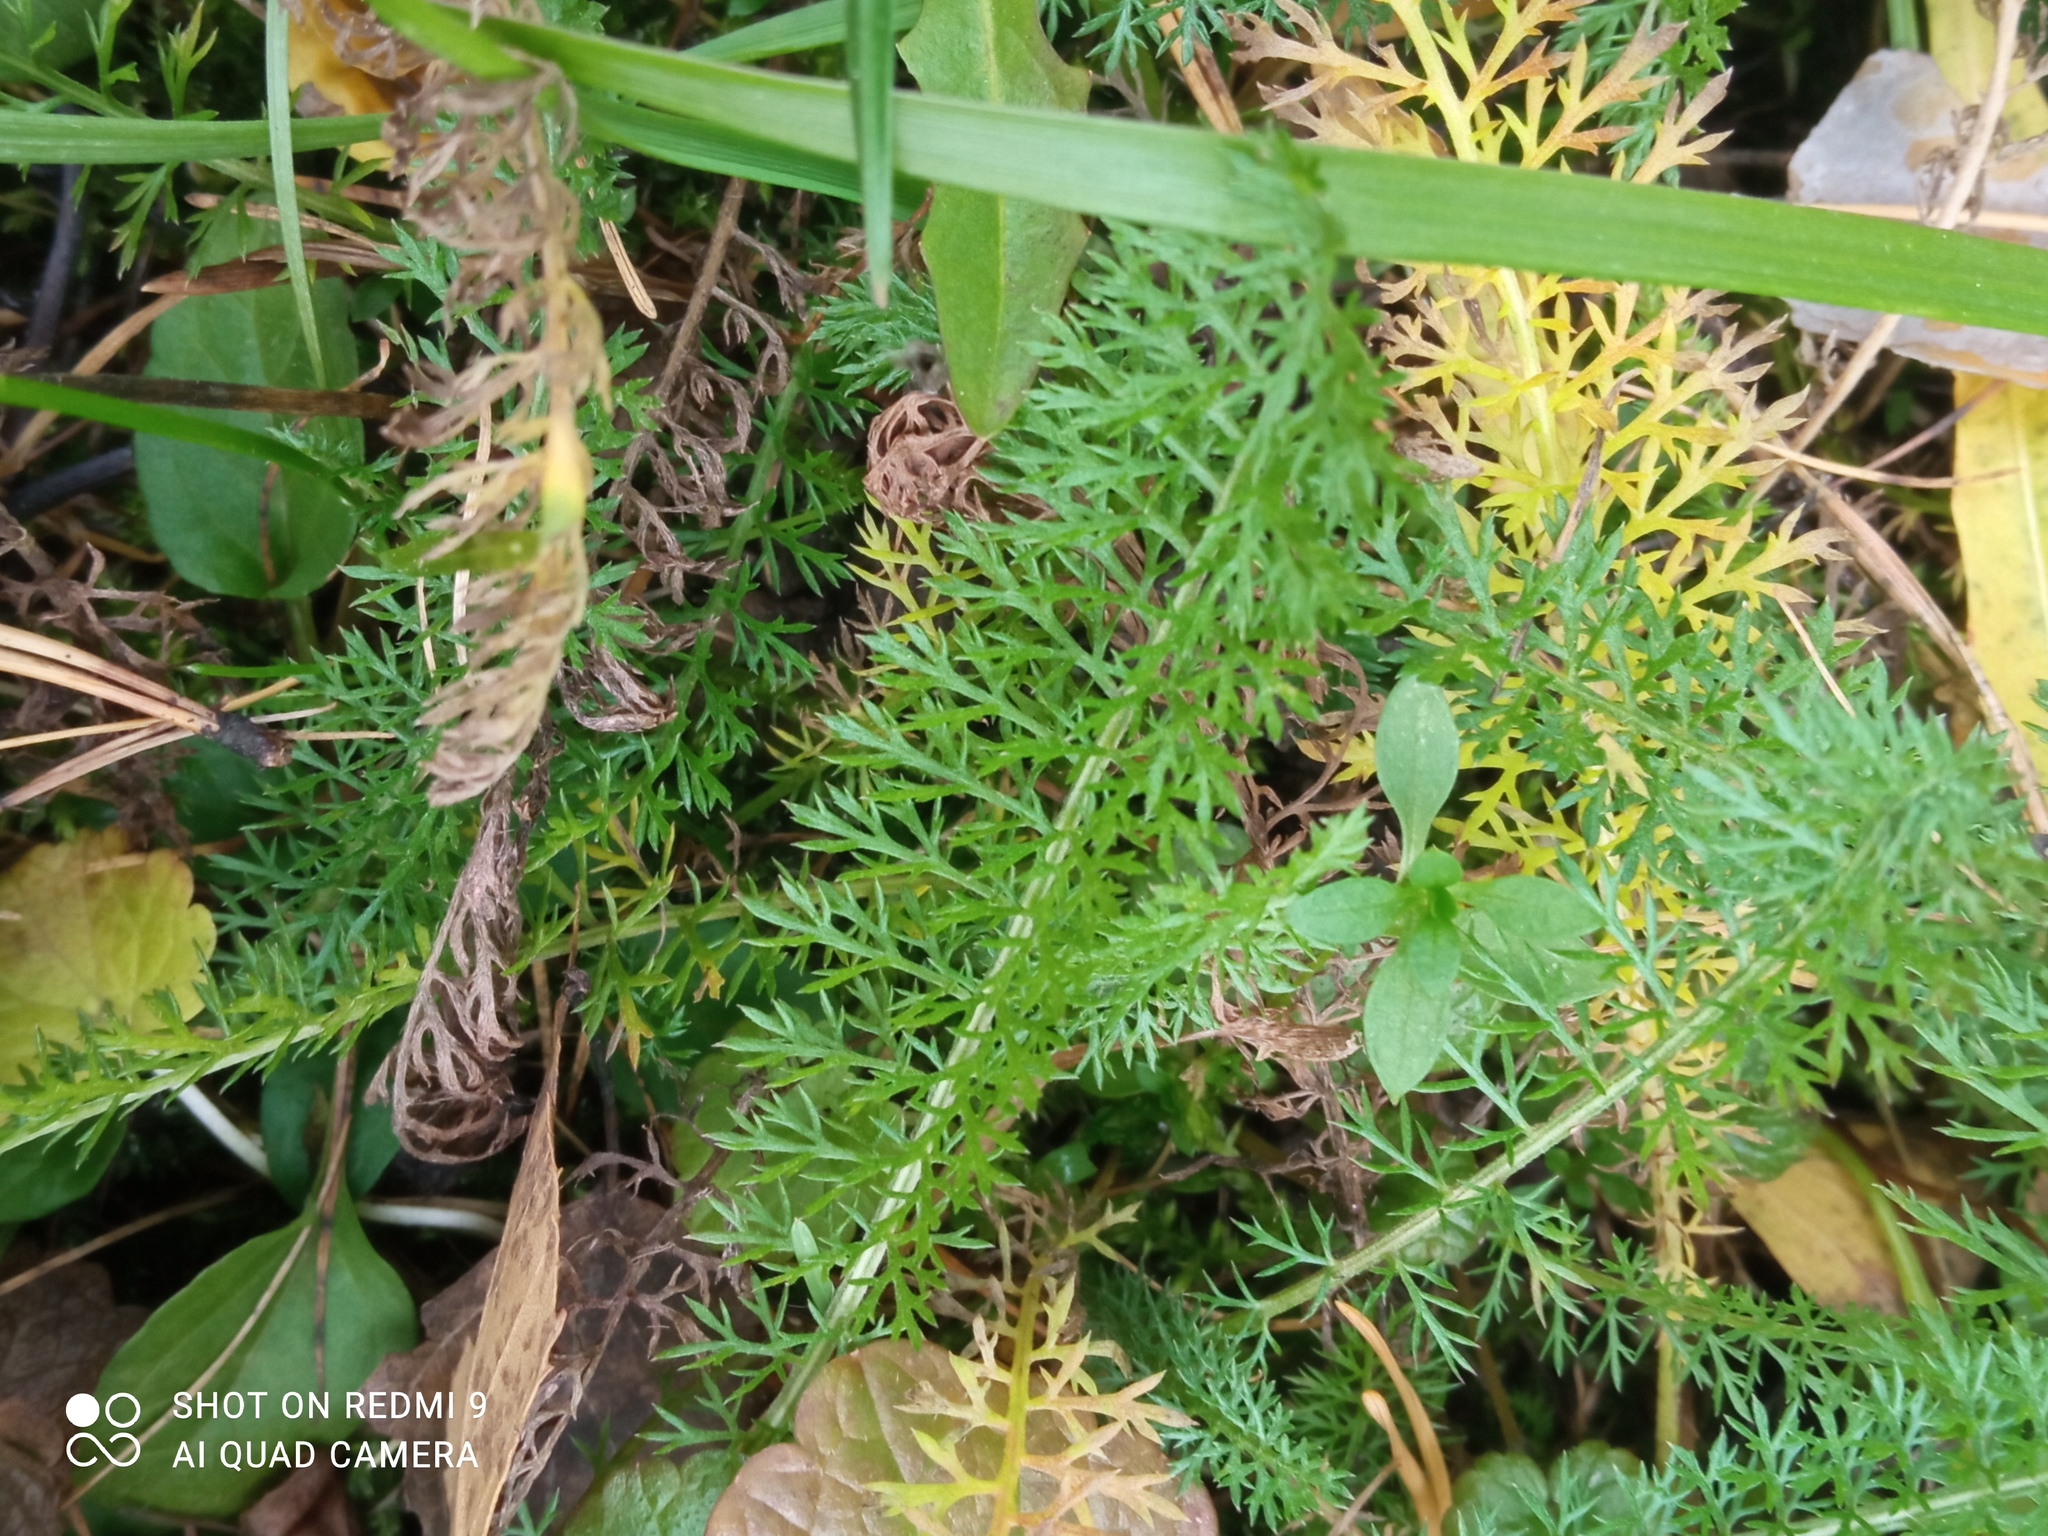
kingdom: Plantae
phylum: Tracheophyta
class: Magnoliopsida
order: Asterales
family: Asteraceae
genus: Achillea
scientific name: Achillea millefolium
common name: Yarrow
